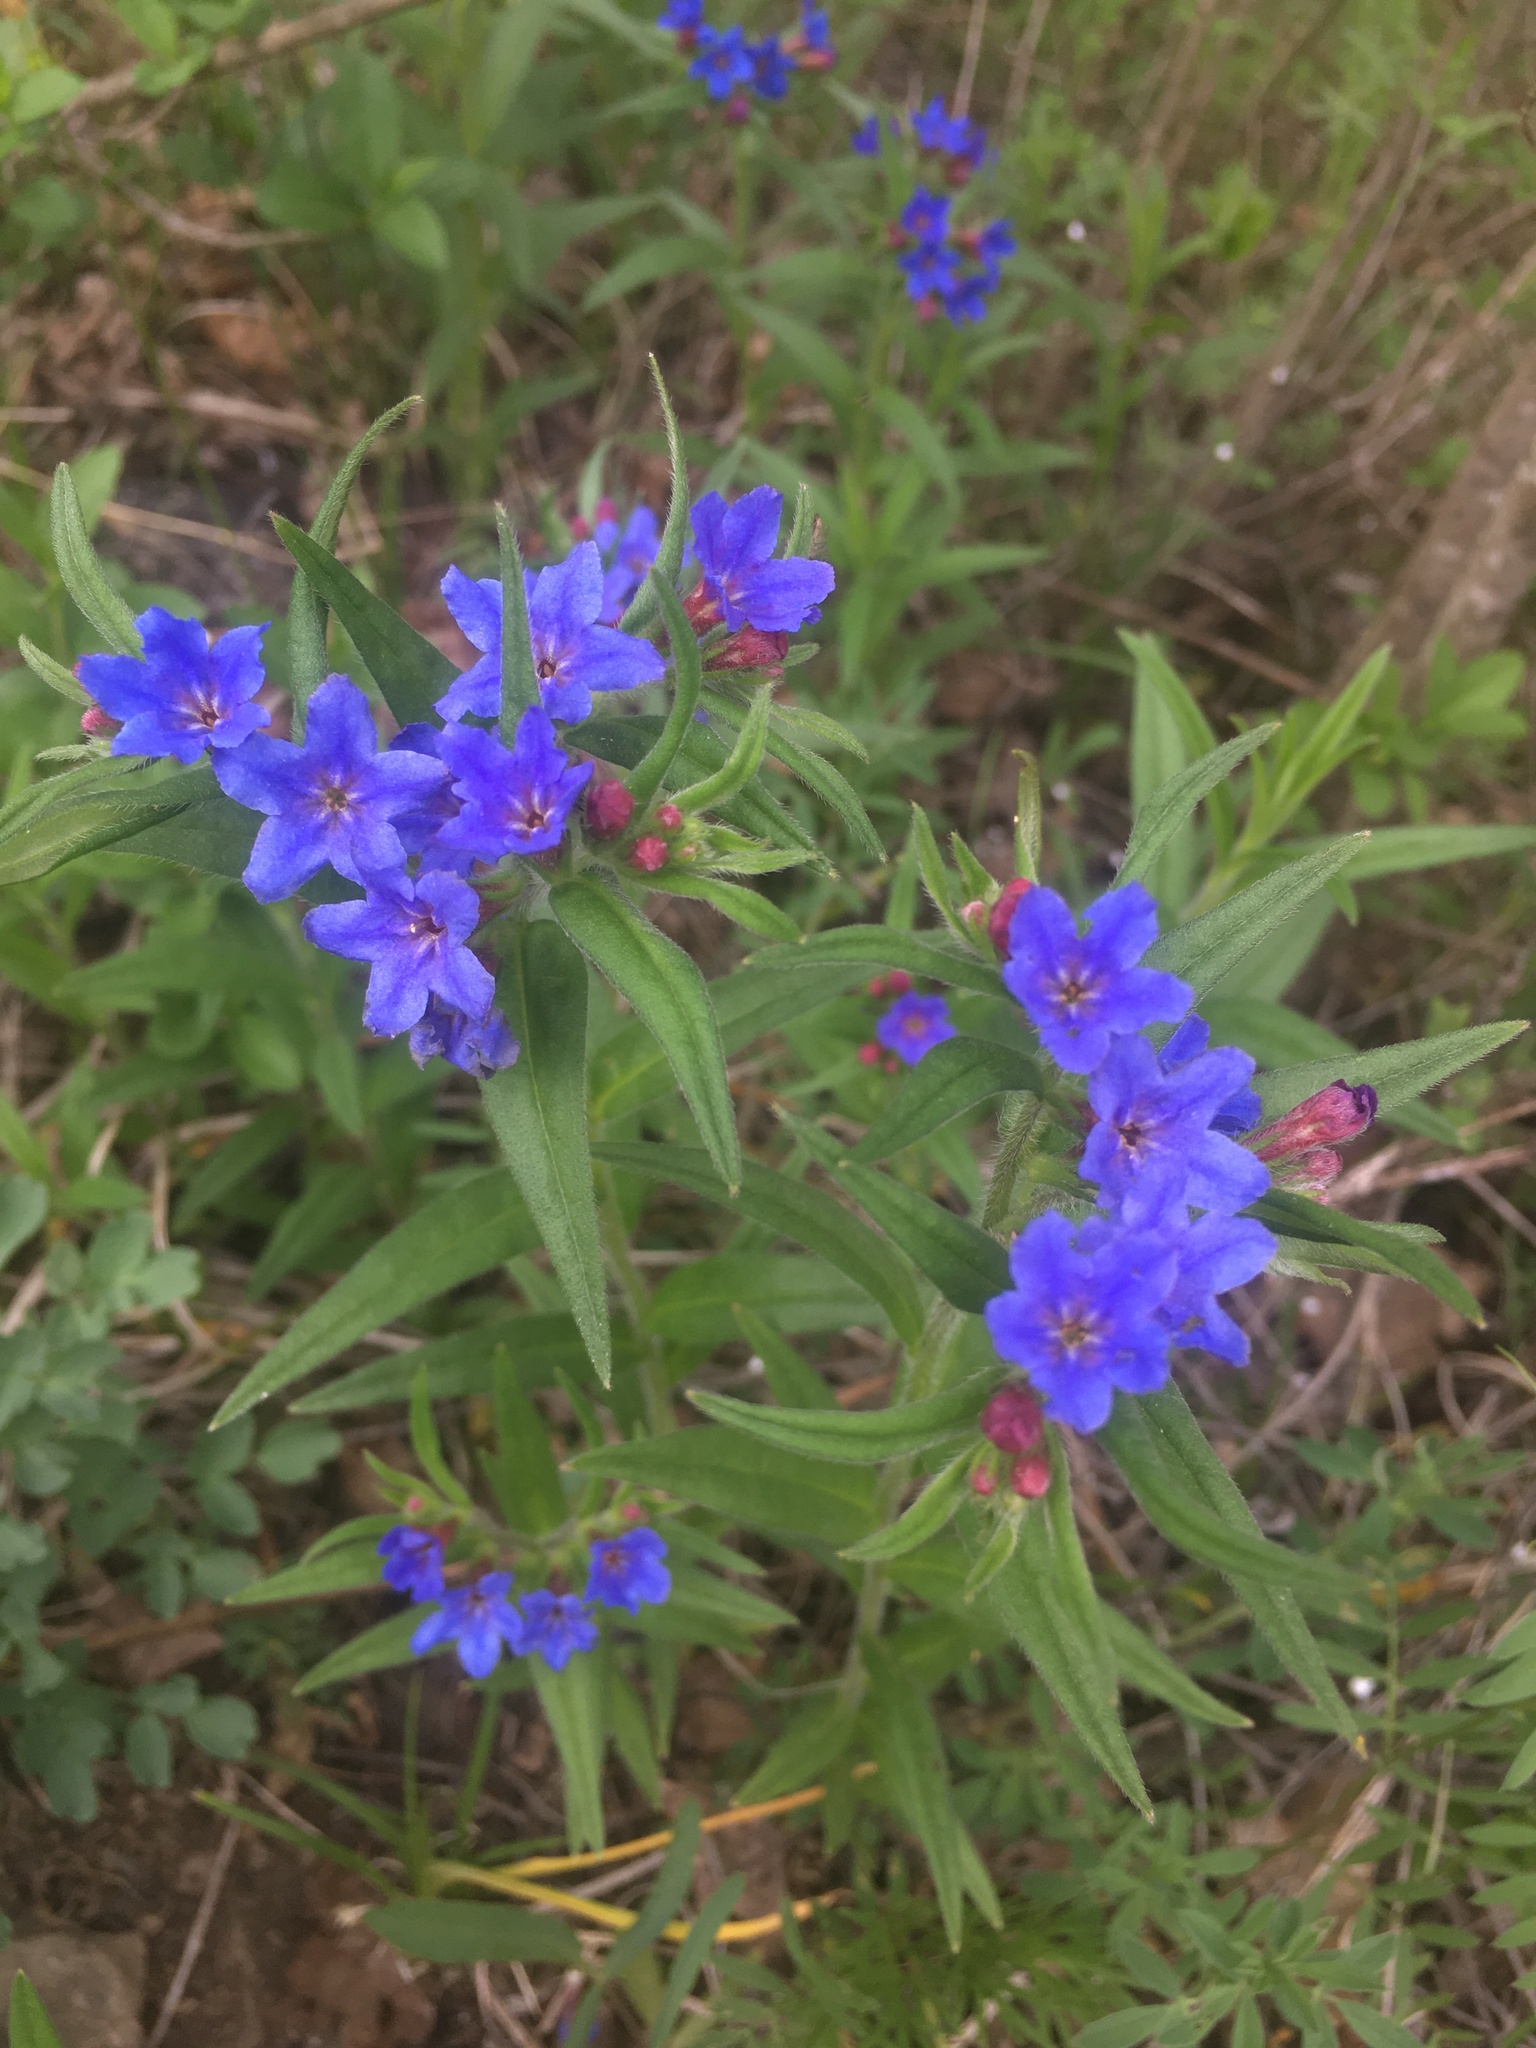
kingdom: Plantae
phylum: Tracheophyta
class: Magnoliopsida
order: Boraginales
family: Boraginaceae
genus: Aegonychon
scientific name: Aegonychon purpurocaeruleum
